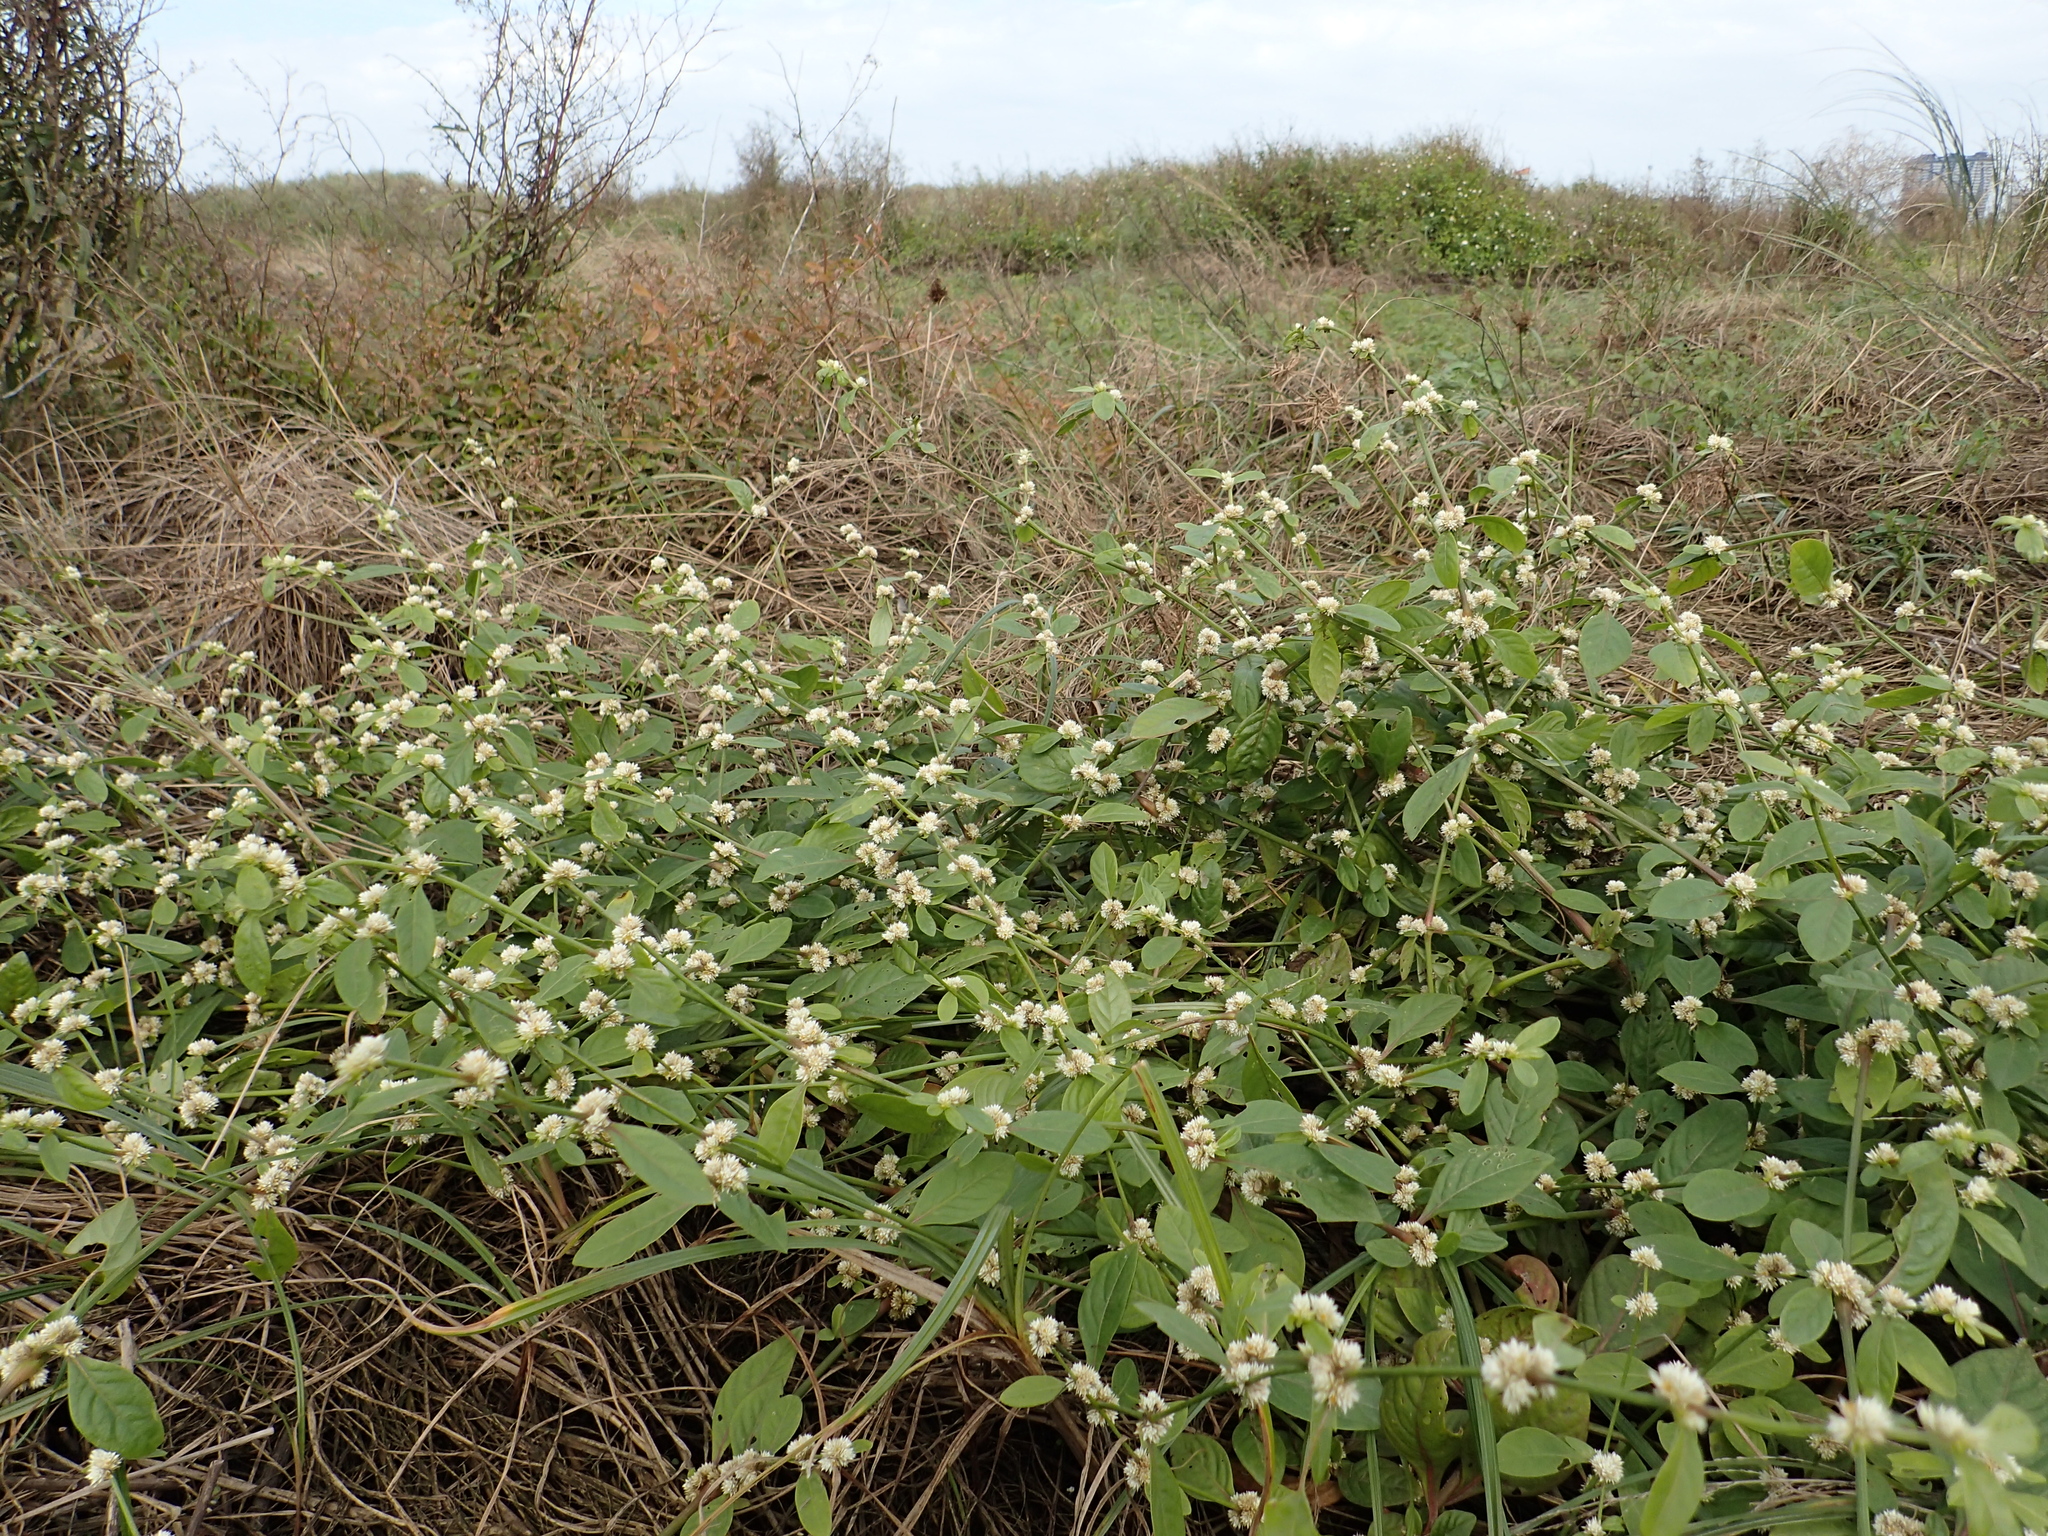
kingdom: Plantae
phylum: Tracheophyta
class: Magnoliopsida
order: Caryophyllales
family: Amaranthaceae
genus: Alternanthera
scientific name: Alternanthera bettzickiana
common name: Calico-plant
